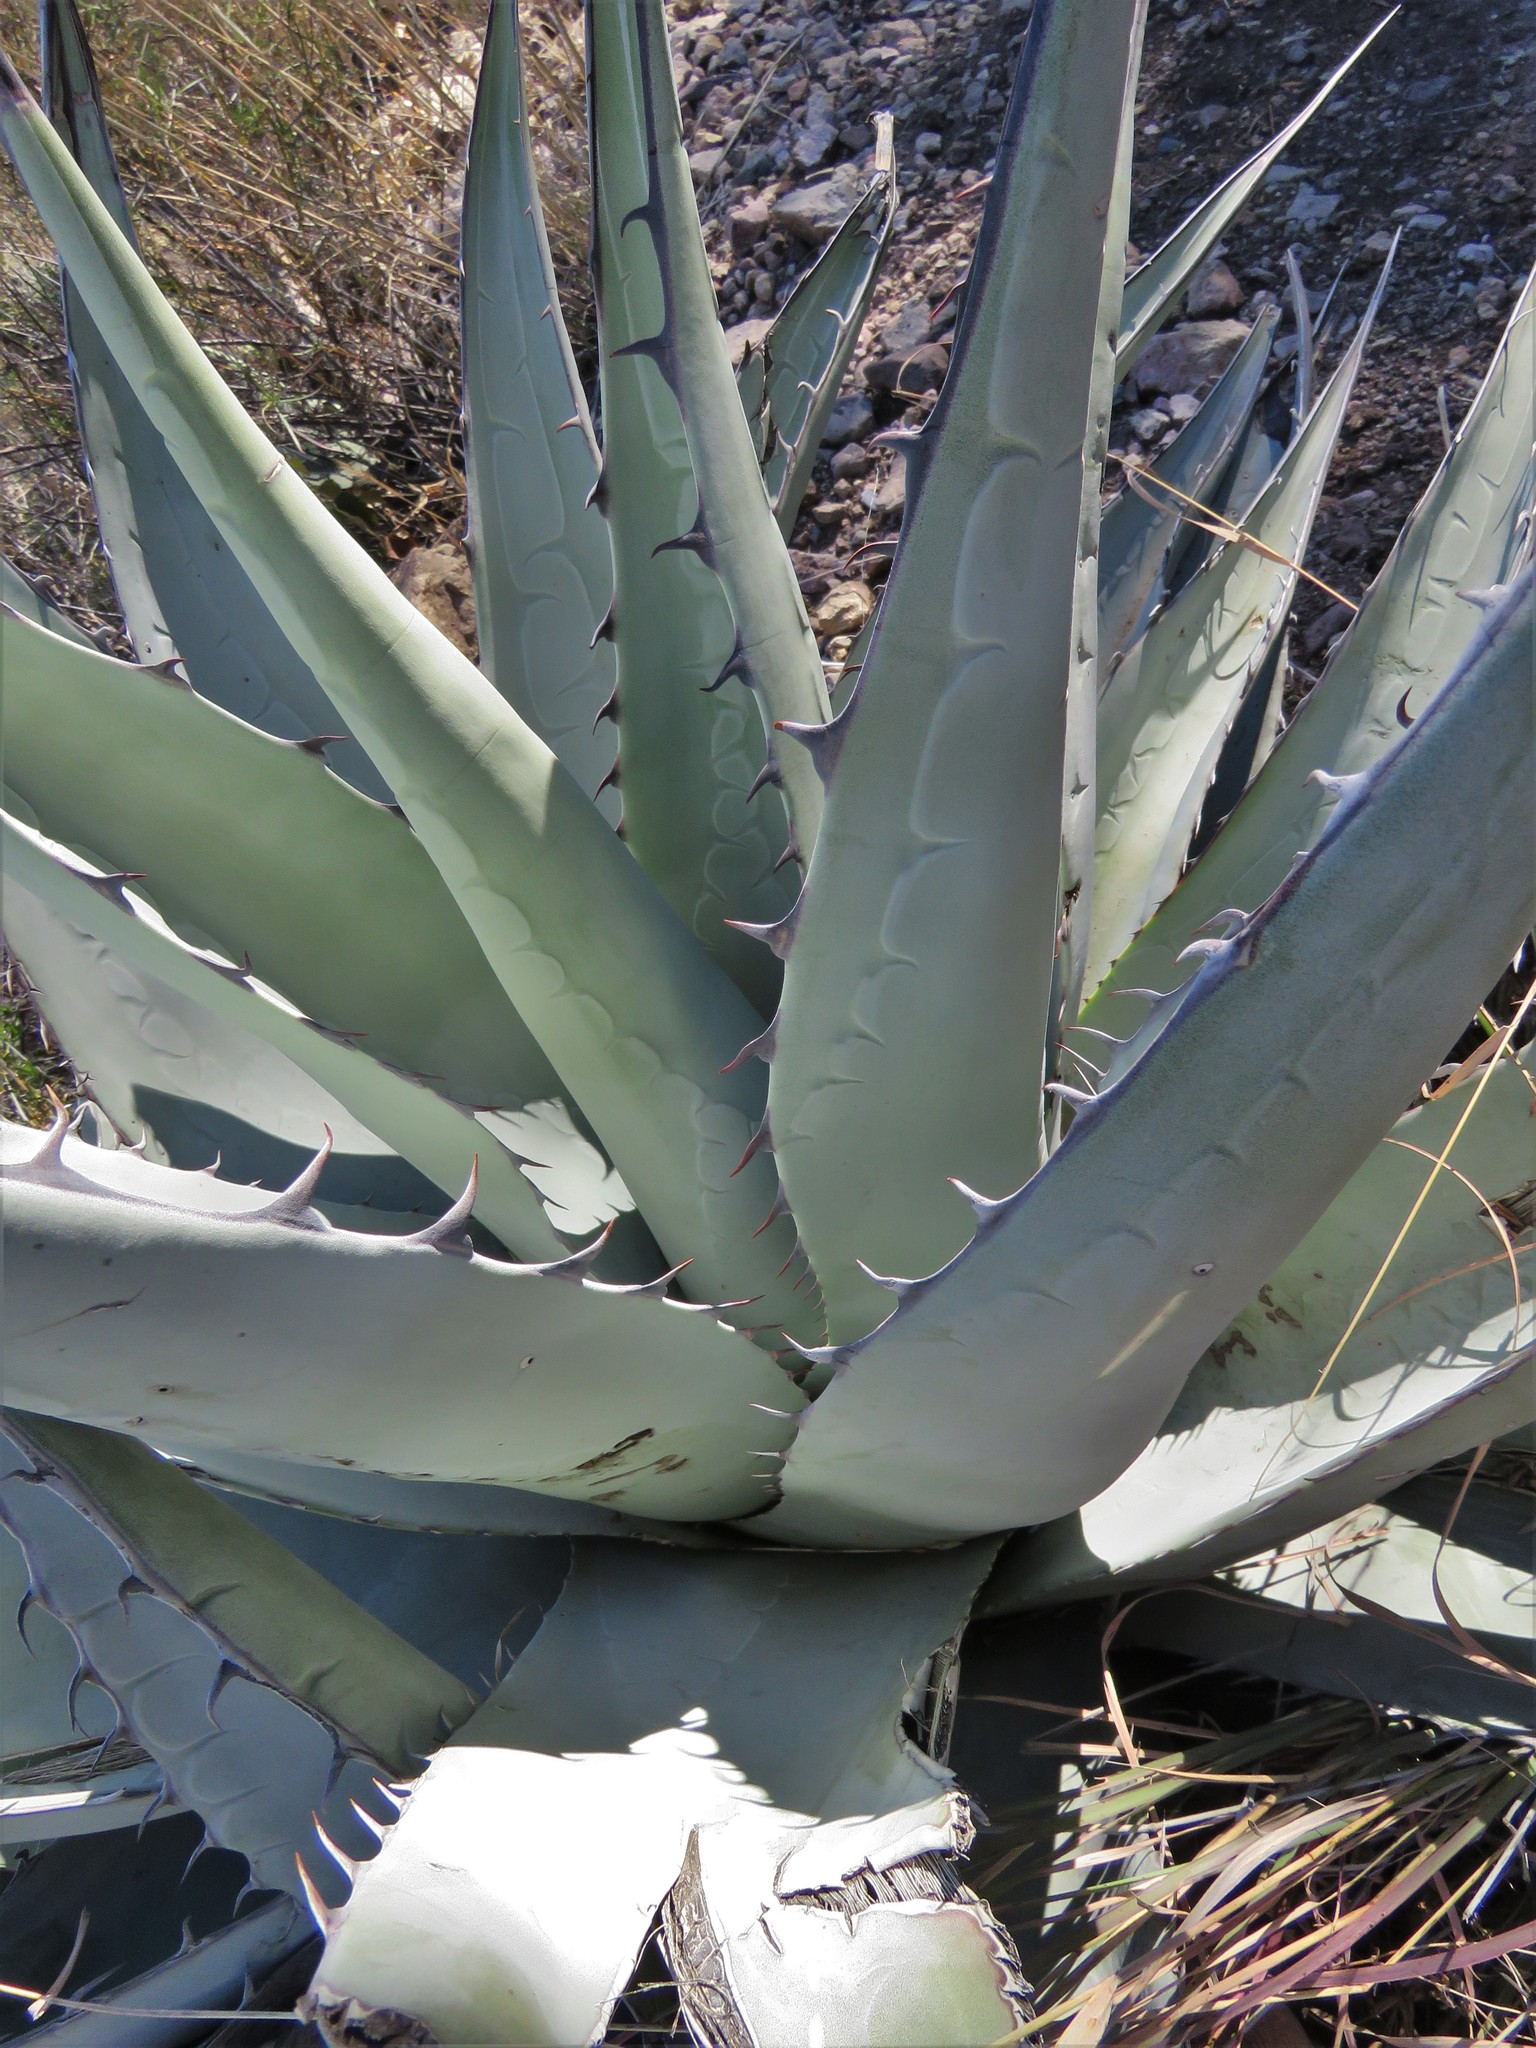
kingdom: Plantae
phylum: Tracheophyta
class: Liliopsida
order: Asparagales
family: Asparagaceae
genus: Agave
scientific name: Agave havardiana
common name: Havard agave
